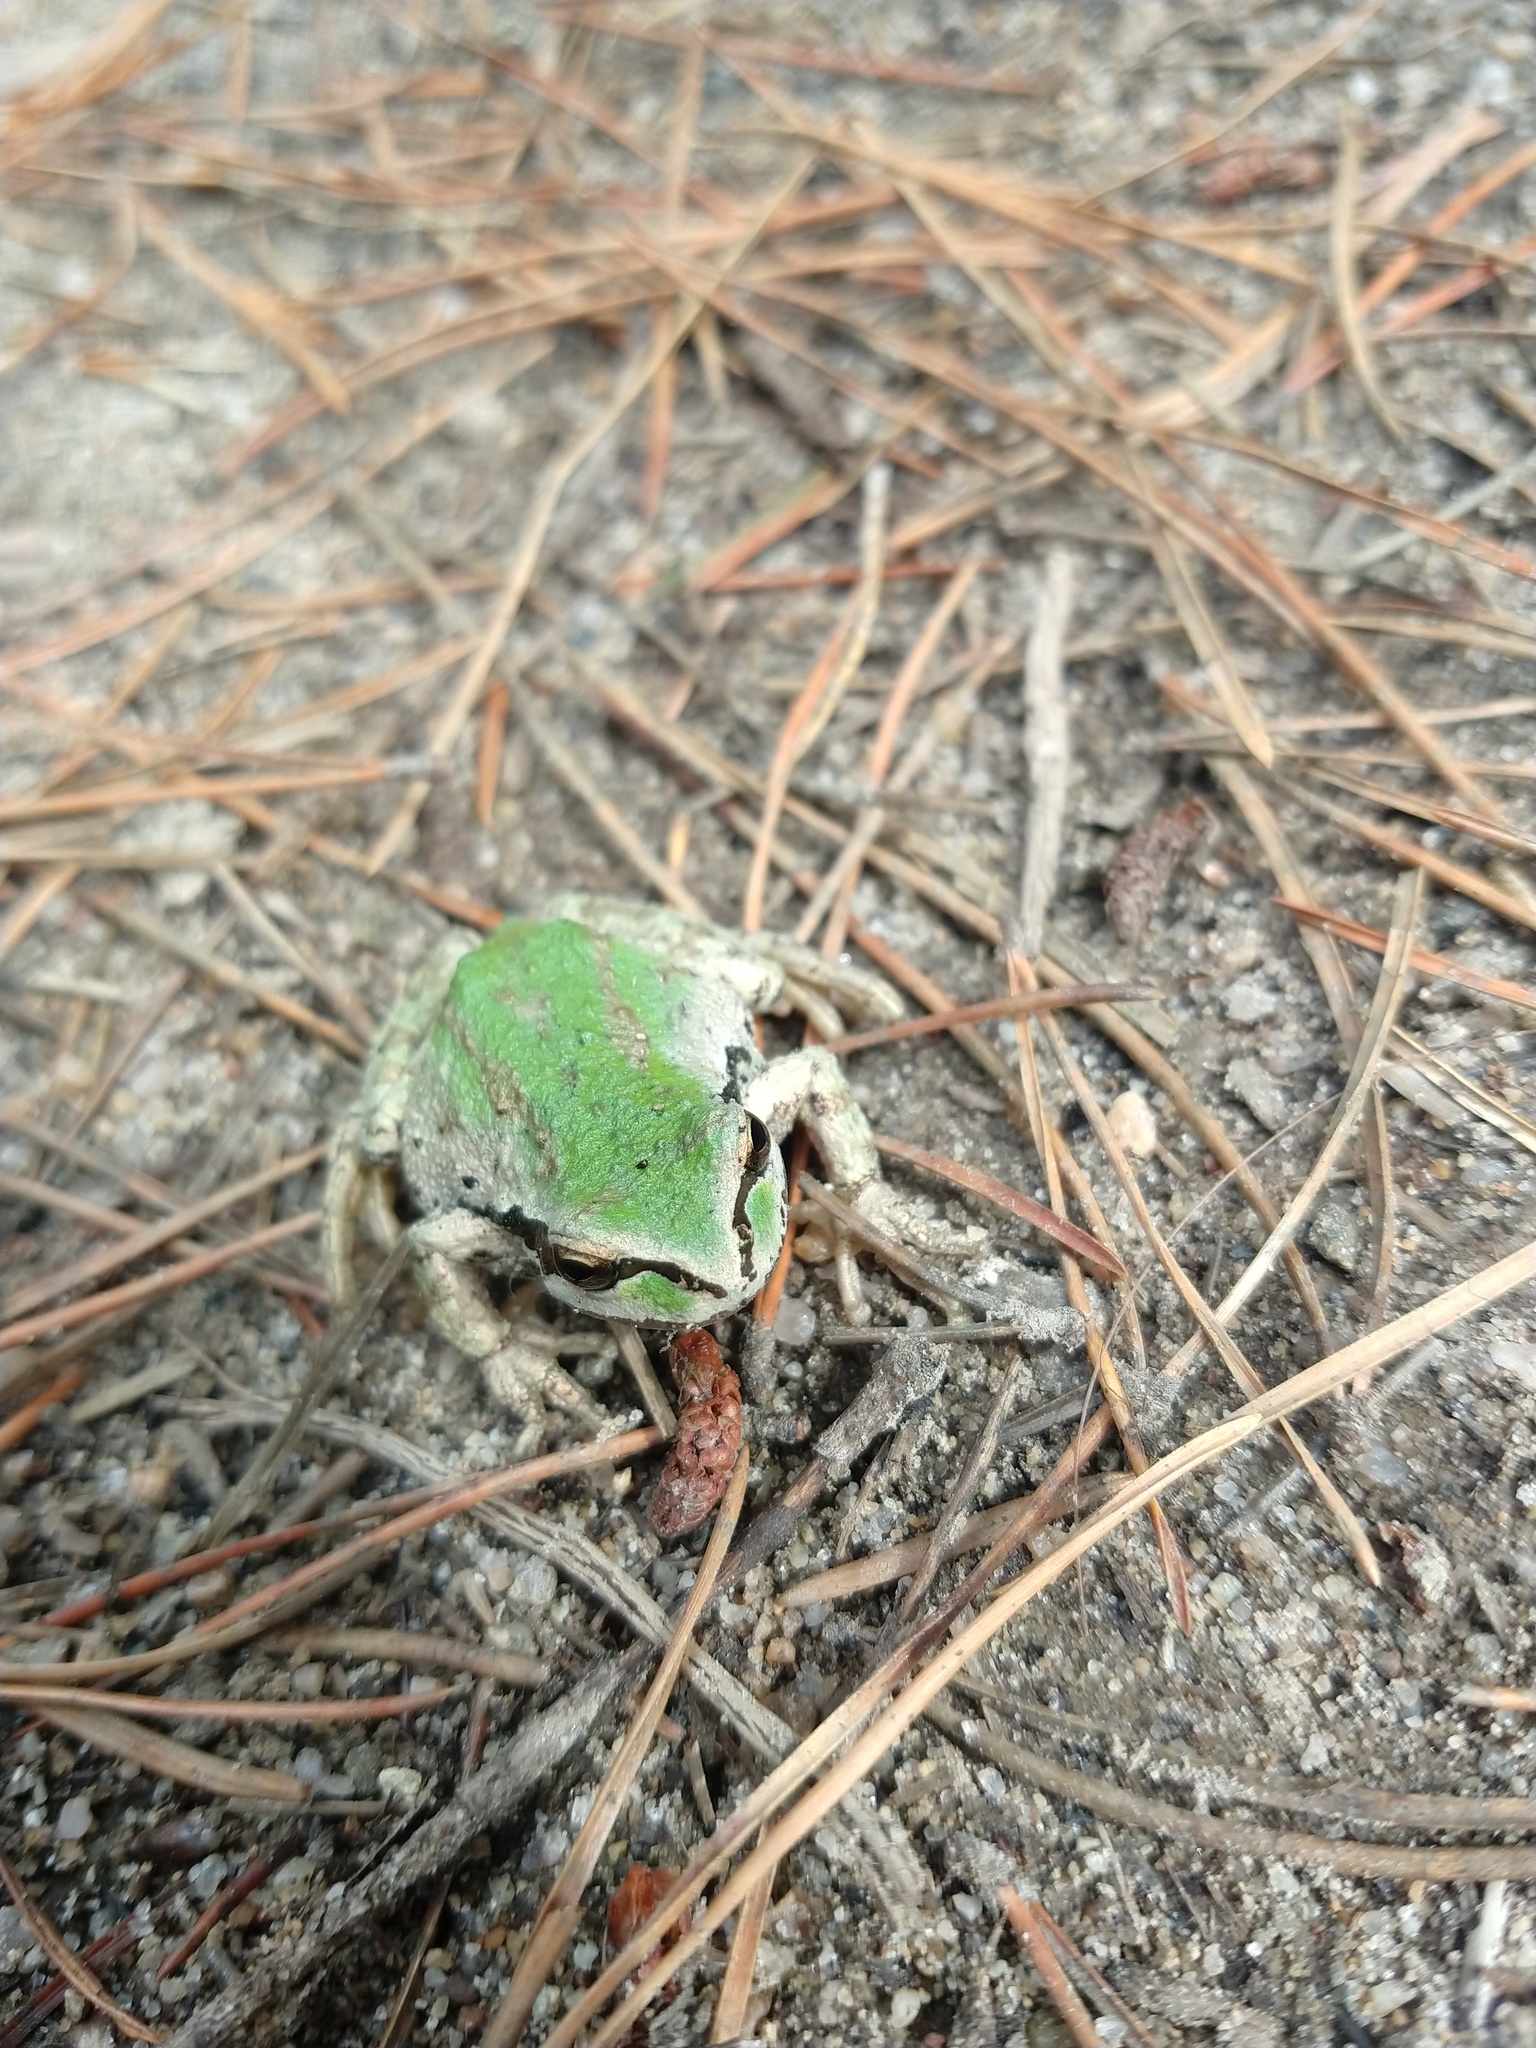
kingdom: Animalia
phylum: Chordata
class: Amphibia
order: Anura
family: Hylidae
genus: Pseudacris
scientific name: Pseudacris regilla
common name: Pacific chorus frog
